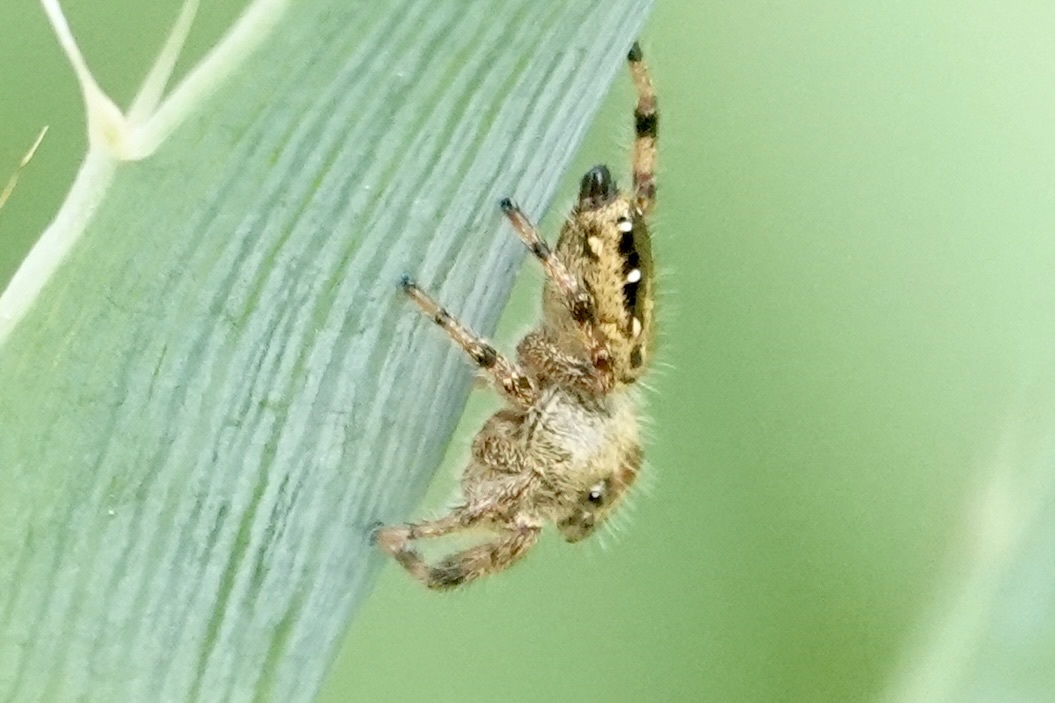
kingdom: Animalia
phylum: Arthropoda
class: Arachnida
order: Araneae
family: Salticidae
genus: Phidippus
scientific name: Phidippus clarus
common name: Brilliant jumping spider
